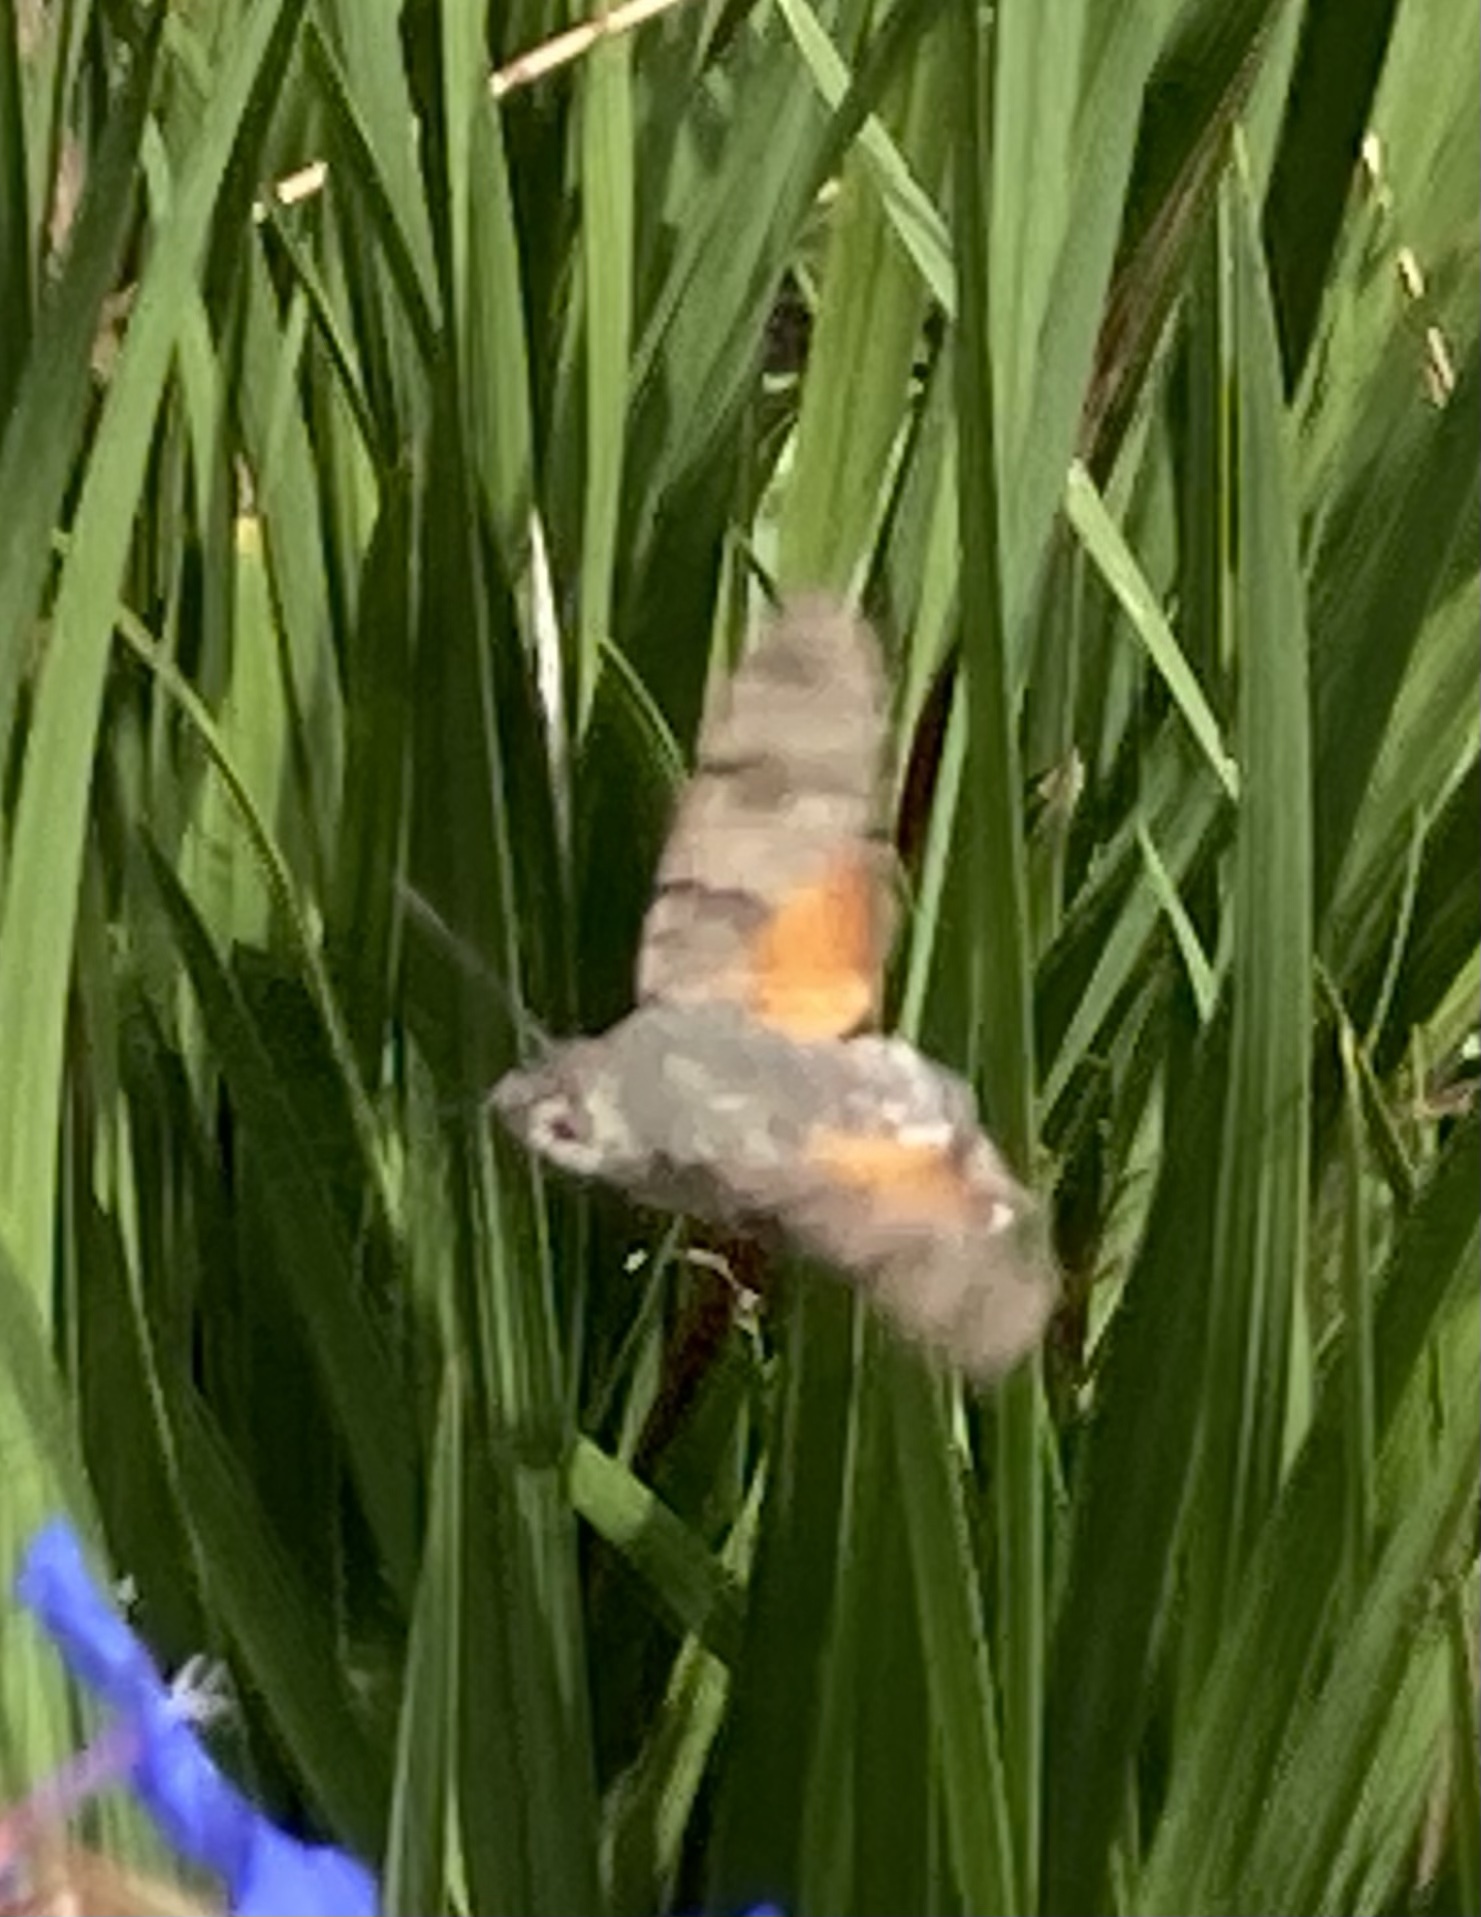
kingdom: Animalia
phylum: Arthropoda
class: Insecta
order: Lepidoptera
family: Sphingidae
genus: Macroglossum
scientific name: Macroglossum stellatarum
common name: Humming-bird hawk-moth
